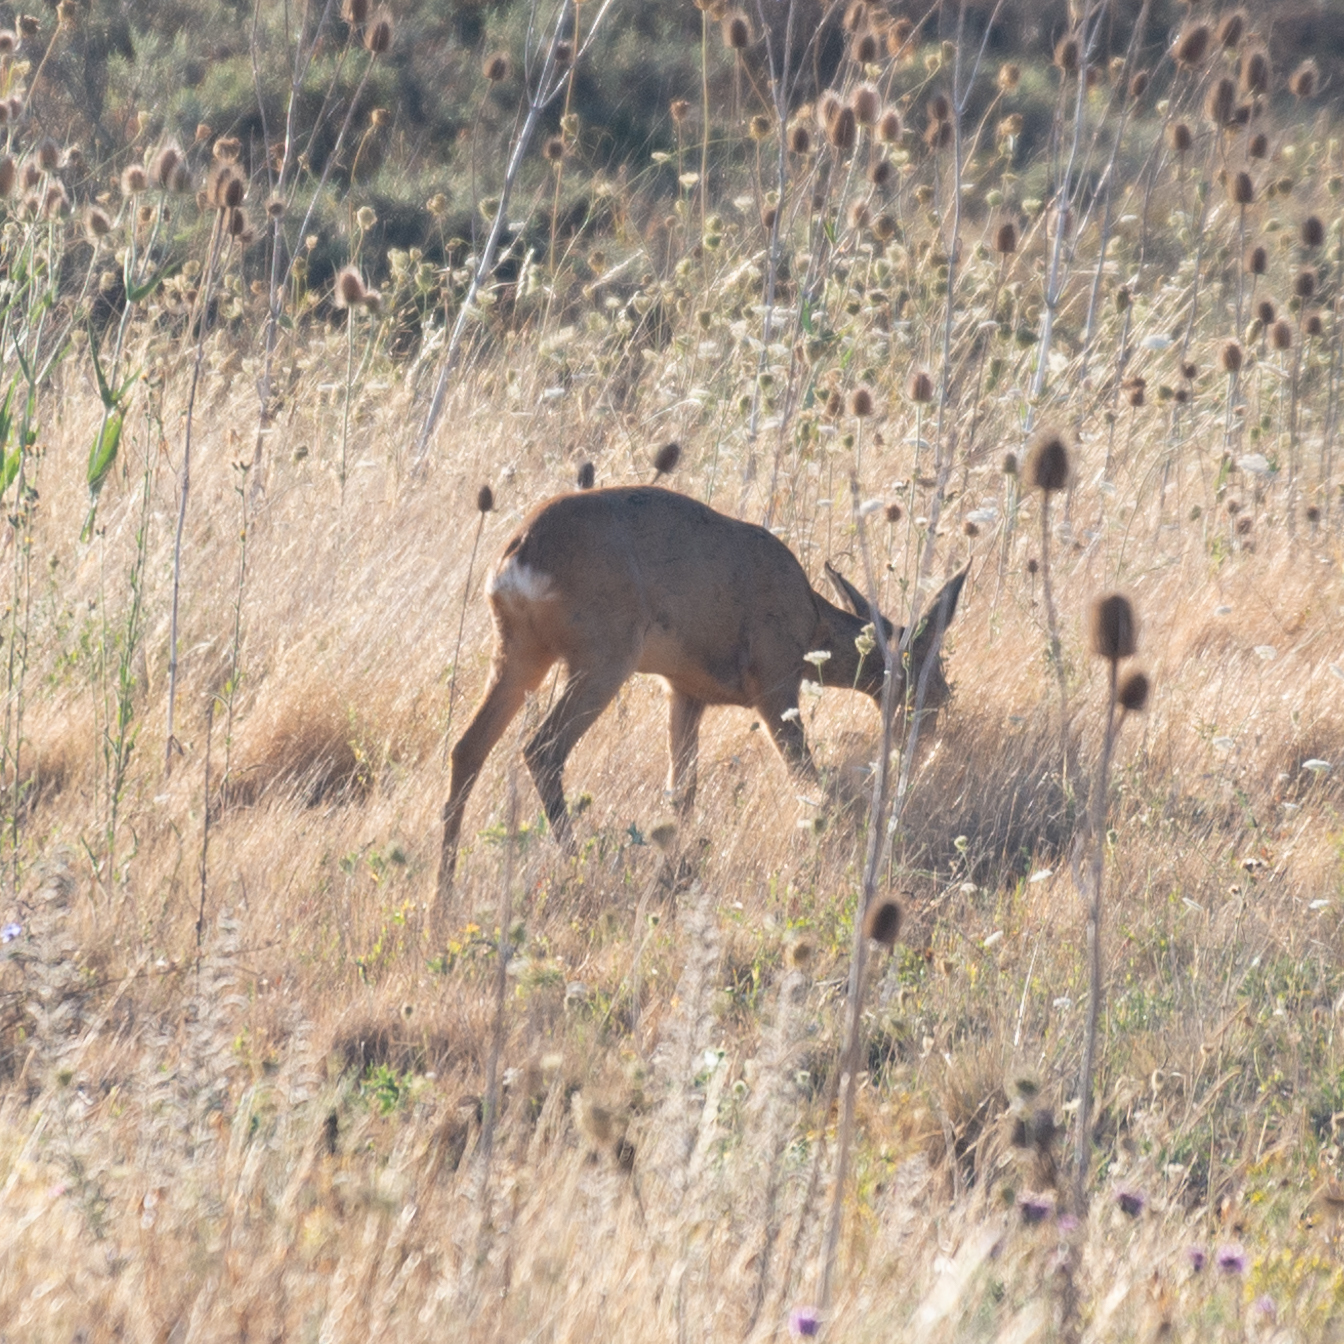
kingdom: Animalia
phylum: Chordata
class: Mammalia
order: Artiodactyla
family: Cervidae
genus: Capreolus
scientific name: Capreolus capreolus
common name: Western roe deer
